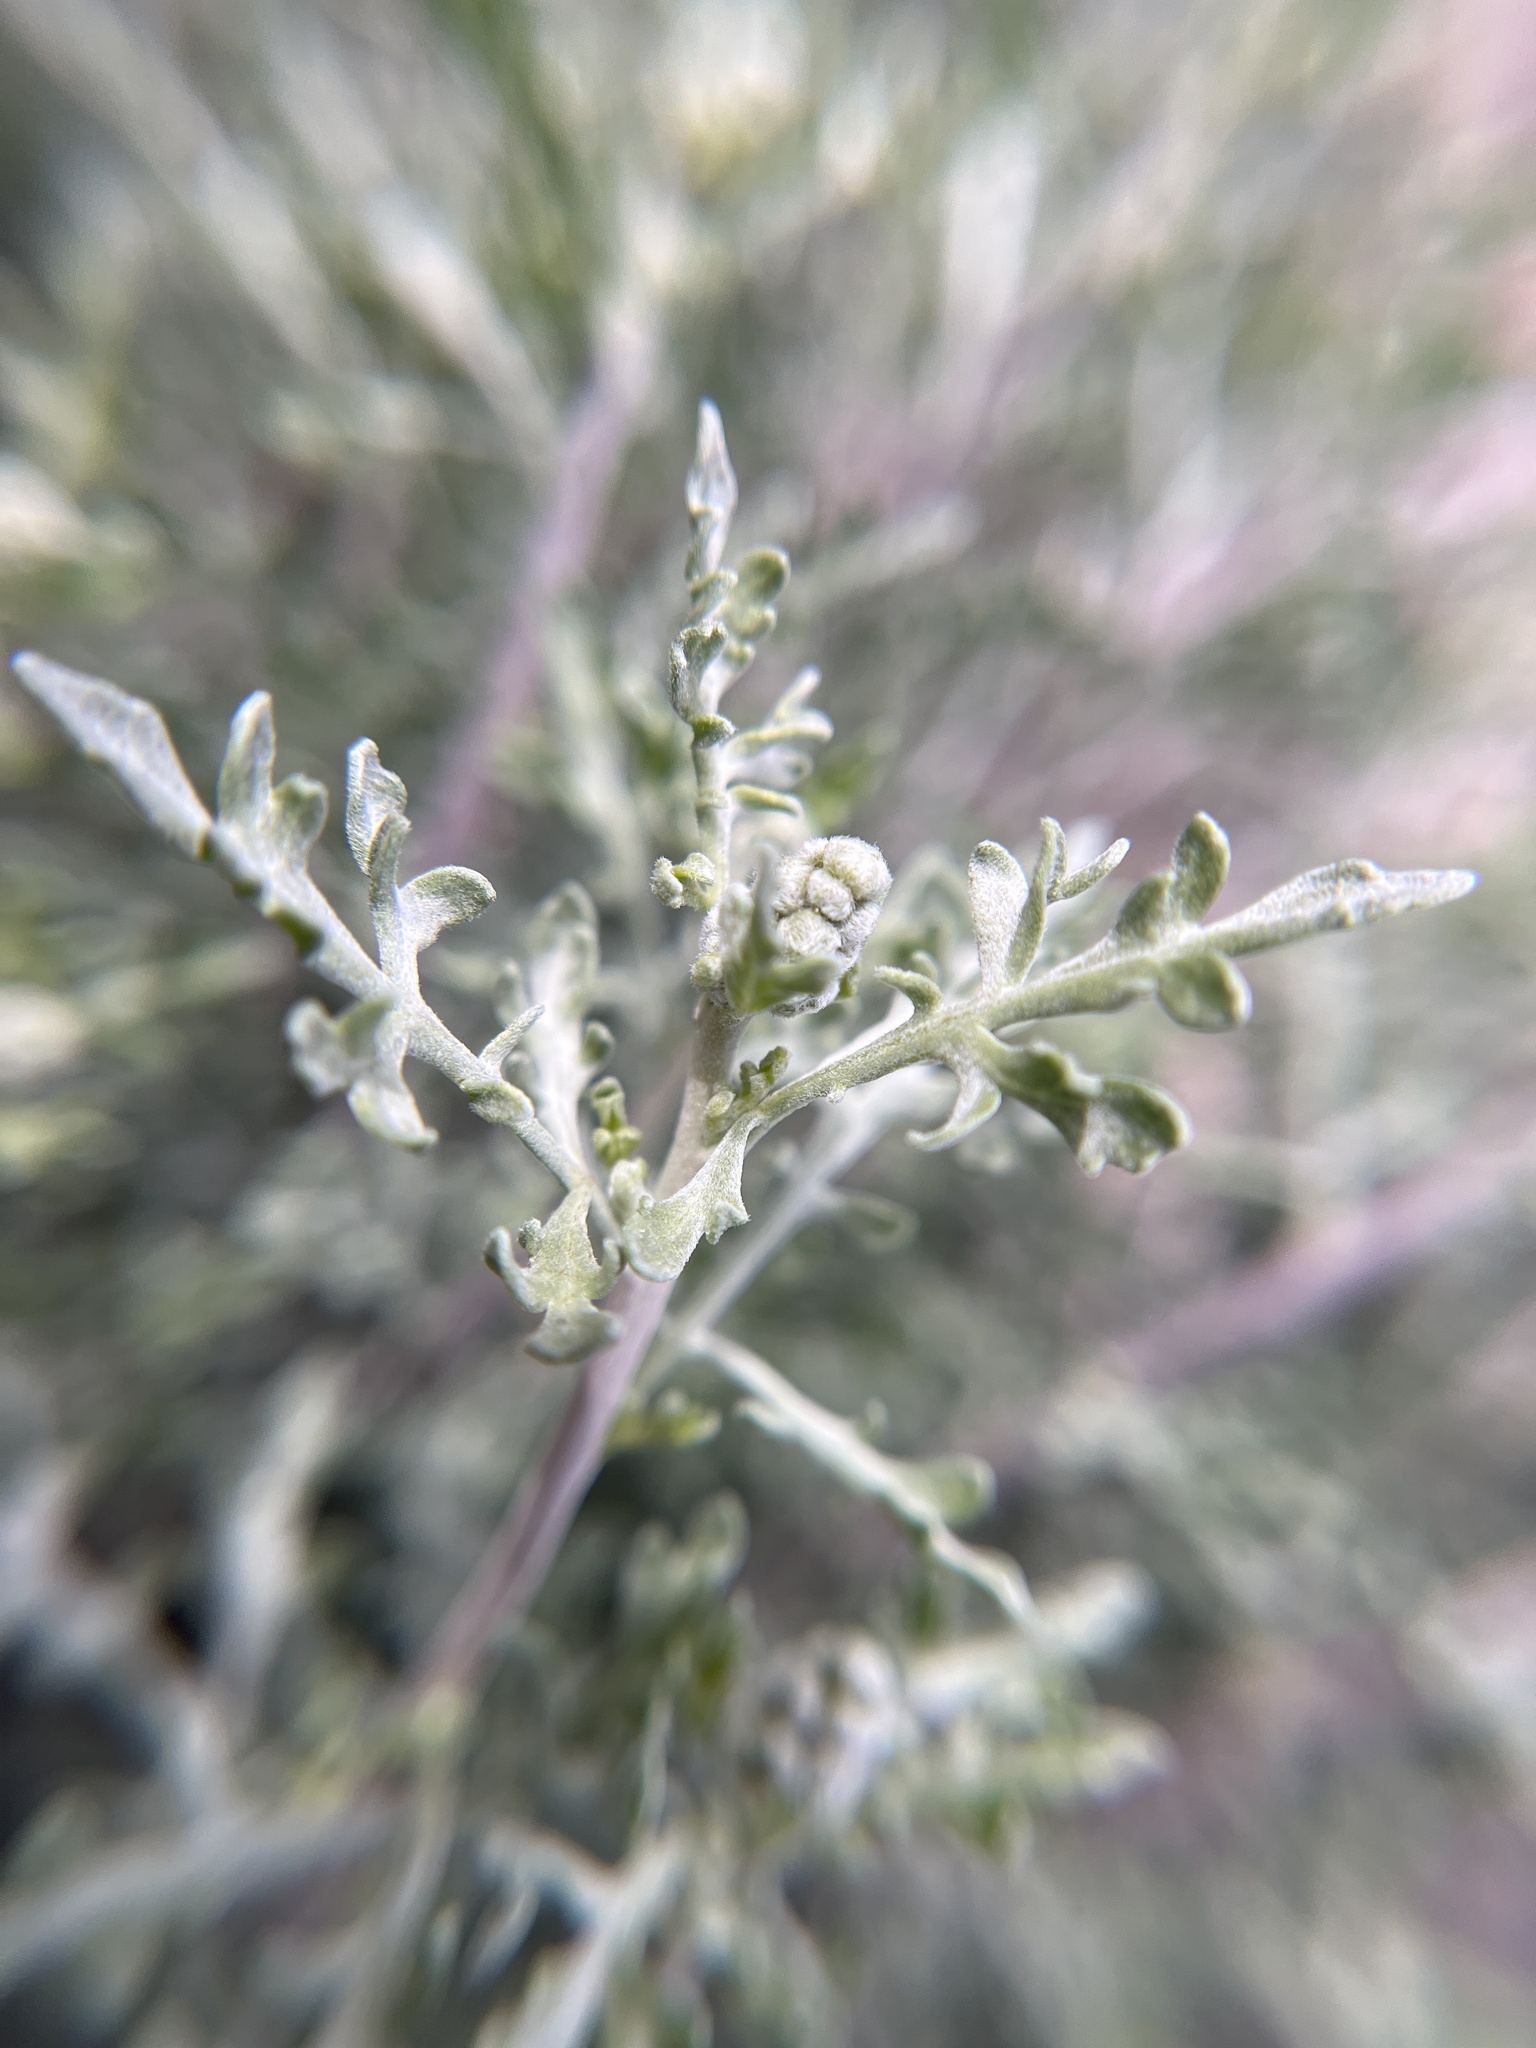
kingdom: Plantae
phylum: Tracheophyta
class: Magnoliopsida
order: Asterales
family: Asteraceae
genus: Ambrosia
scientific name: Ambrosia dumosa
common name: Bur-sage
